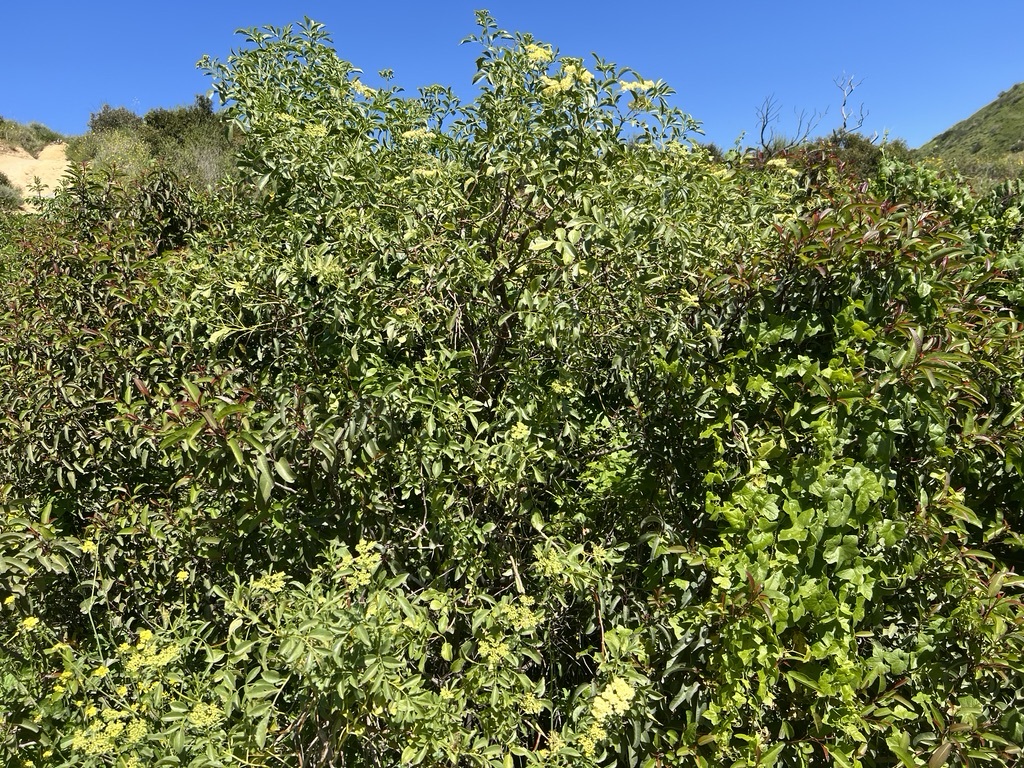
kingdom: Plantae
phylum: Tracheophyta
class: Magnoliopsida
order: Dipsacales
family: Viburnaceae
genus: Sambucus
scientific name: Sambucus cerulea
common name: Blue elder
